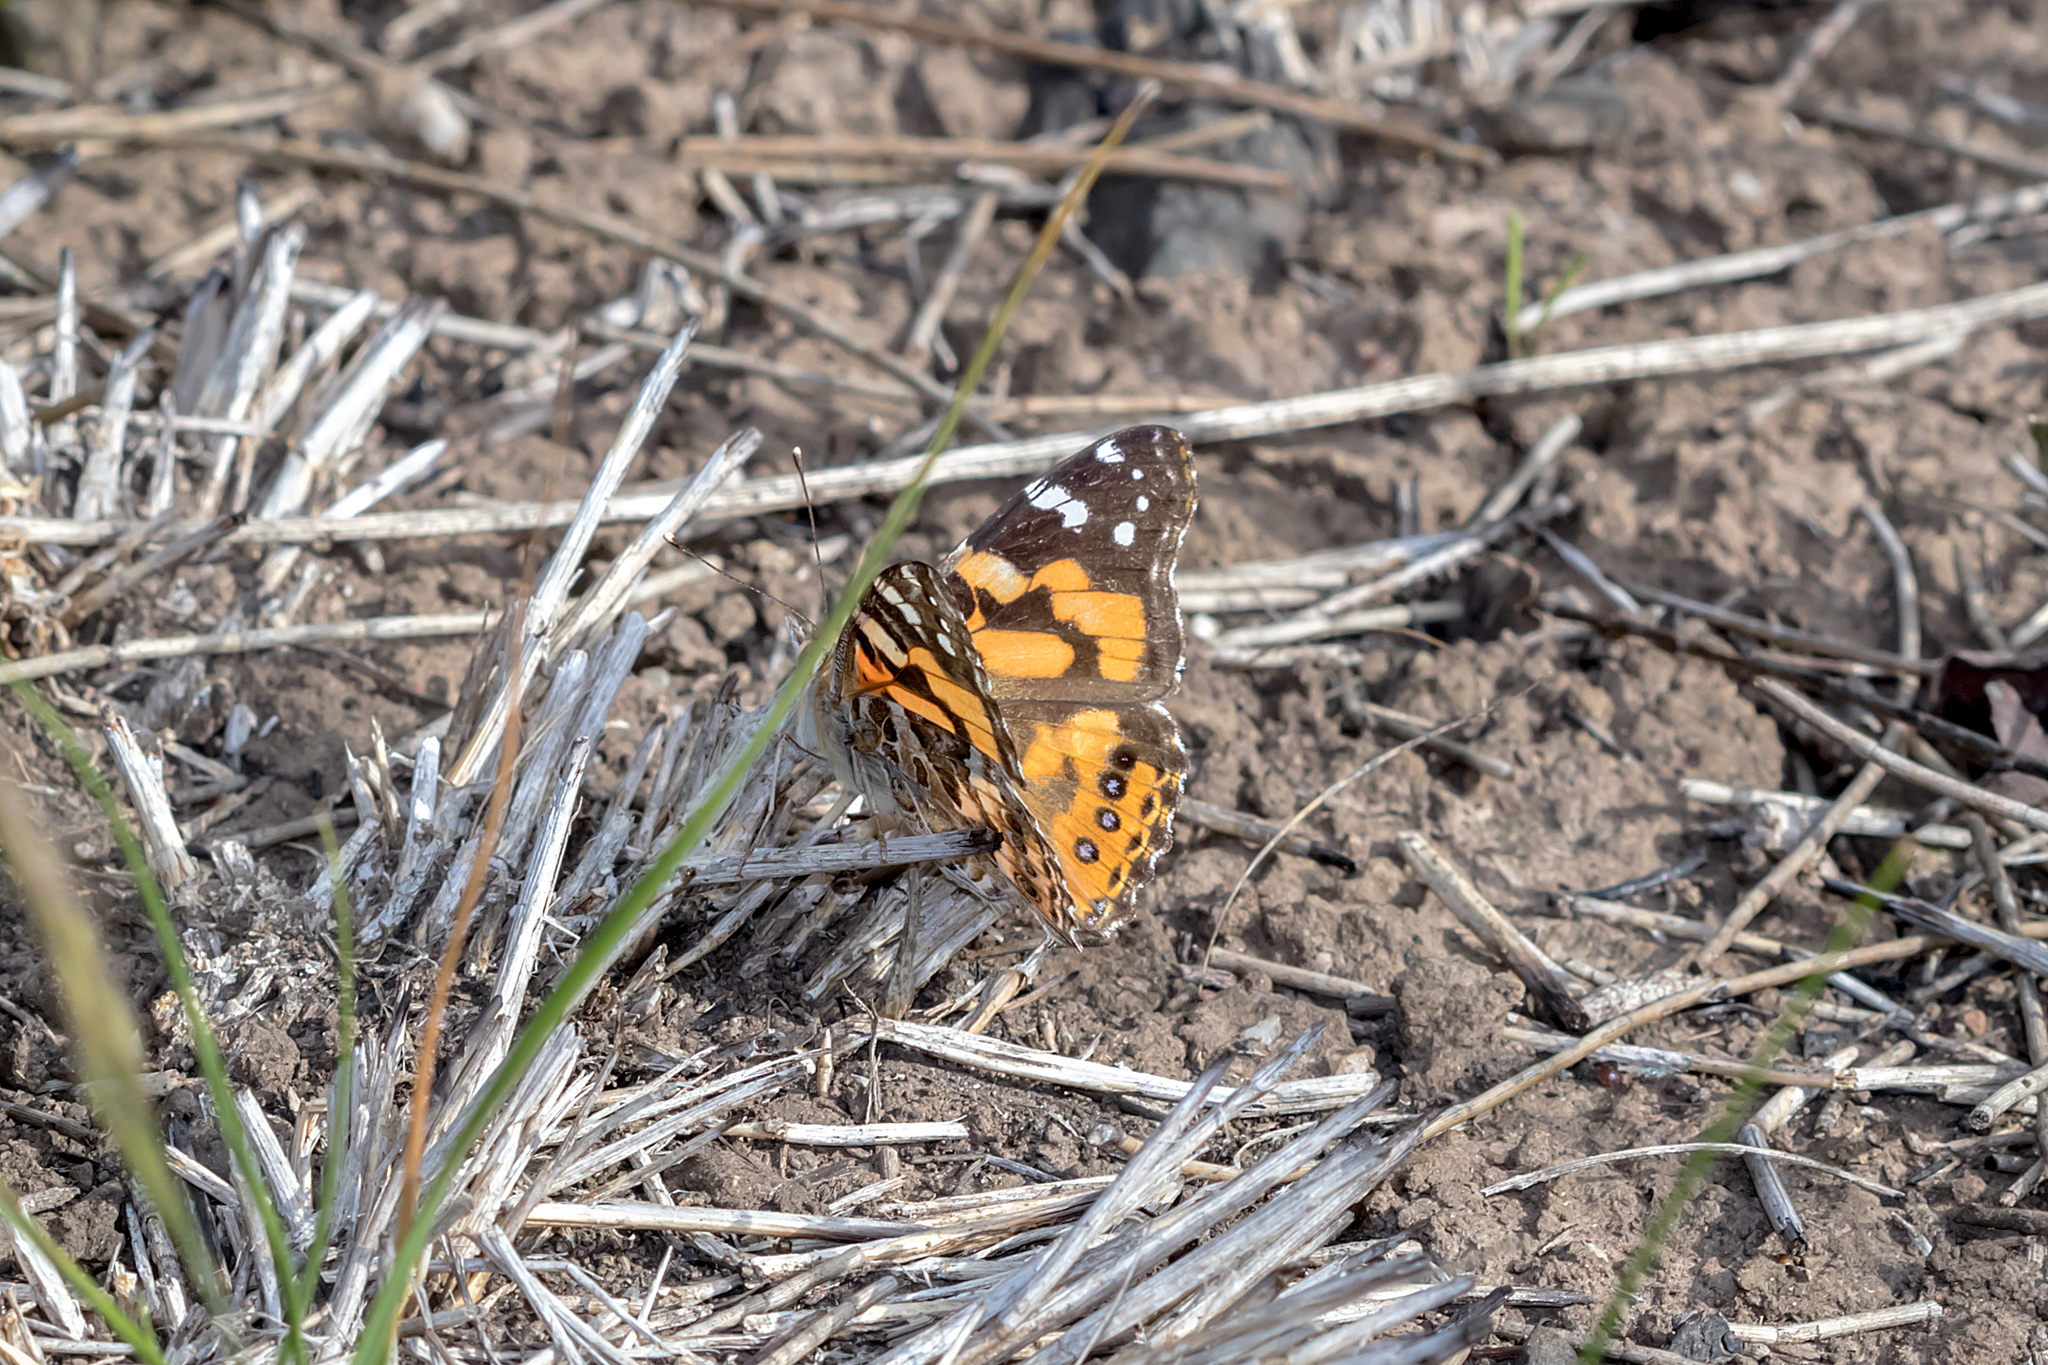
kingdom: Animalia
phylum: Arthropoda
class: Insecta
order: Lepidoptera
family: Nymphalidae
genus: Vanessa
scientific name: Vanessa kershawi
